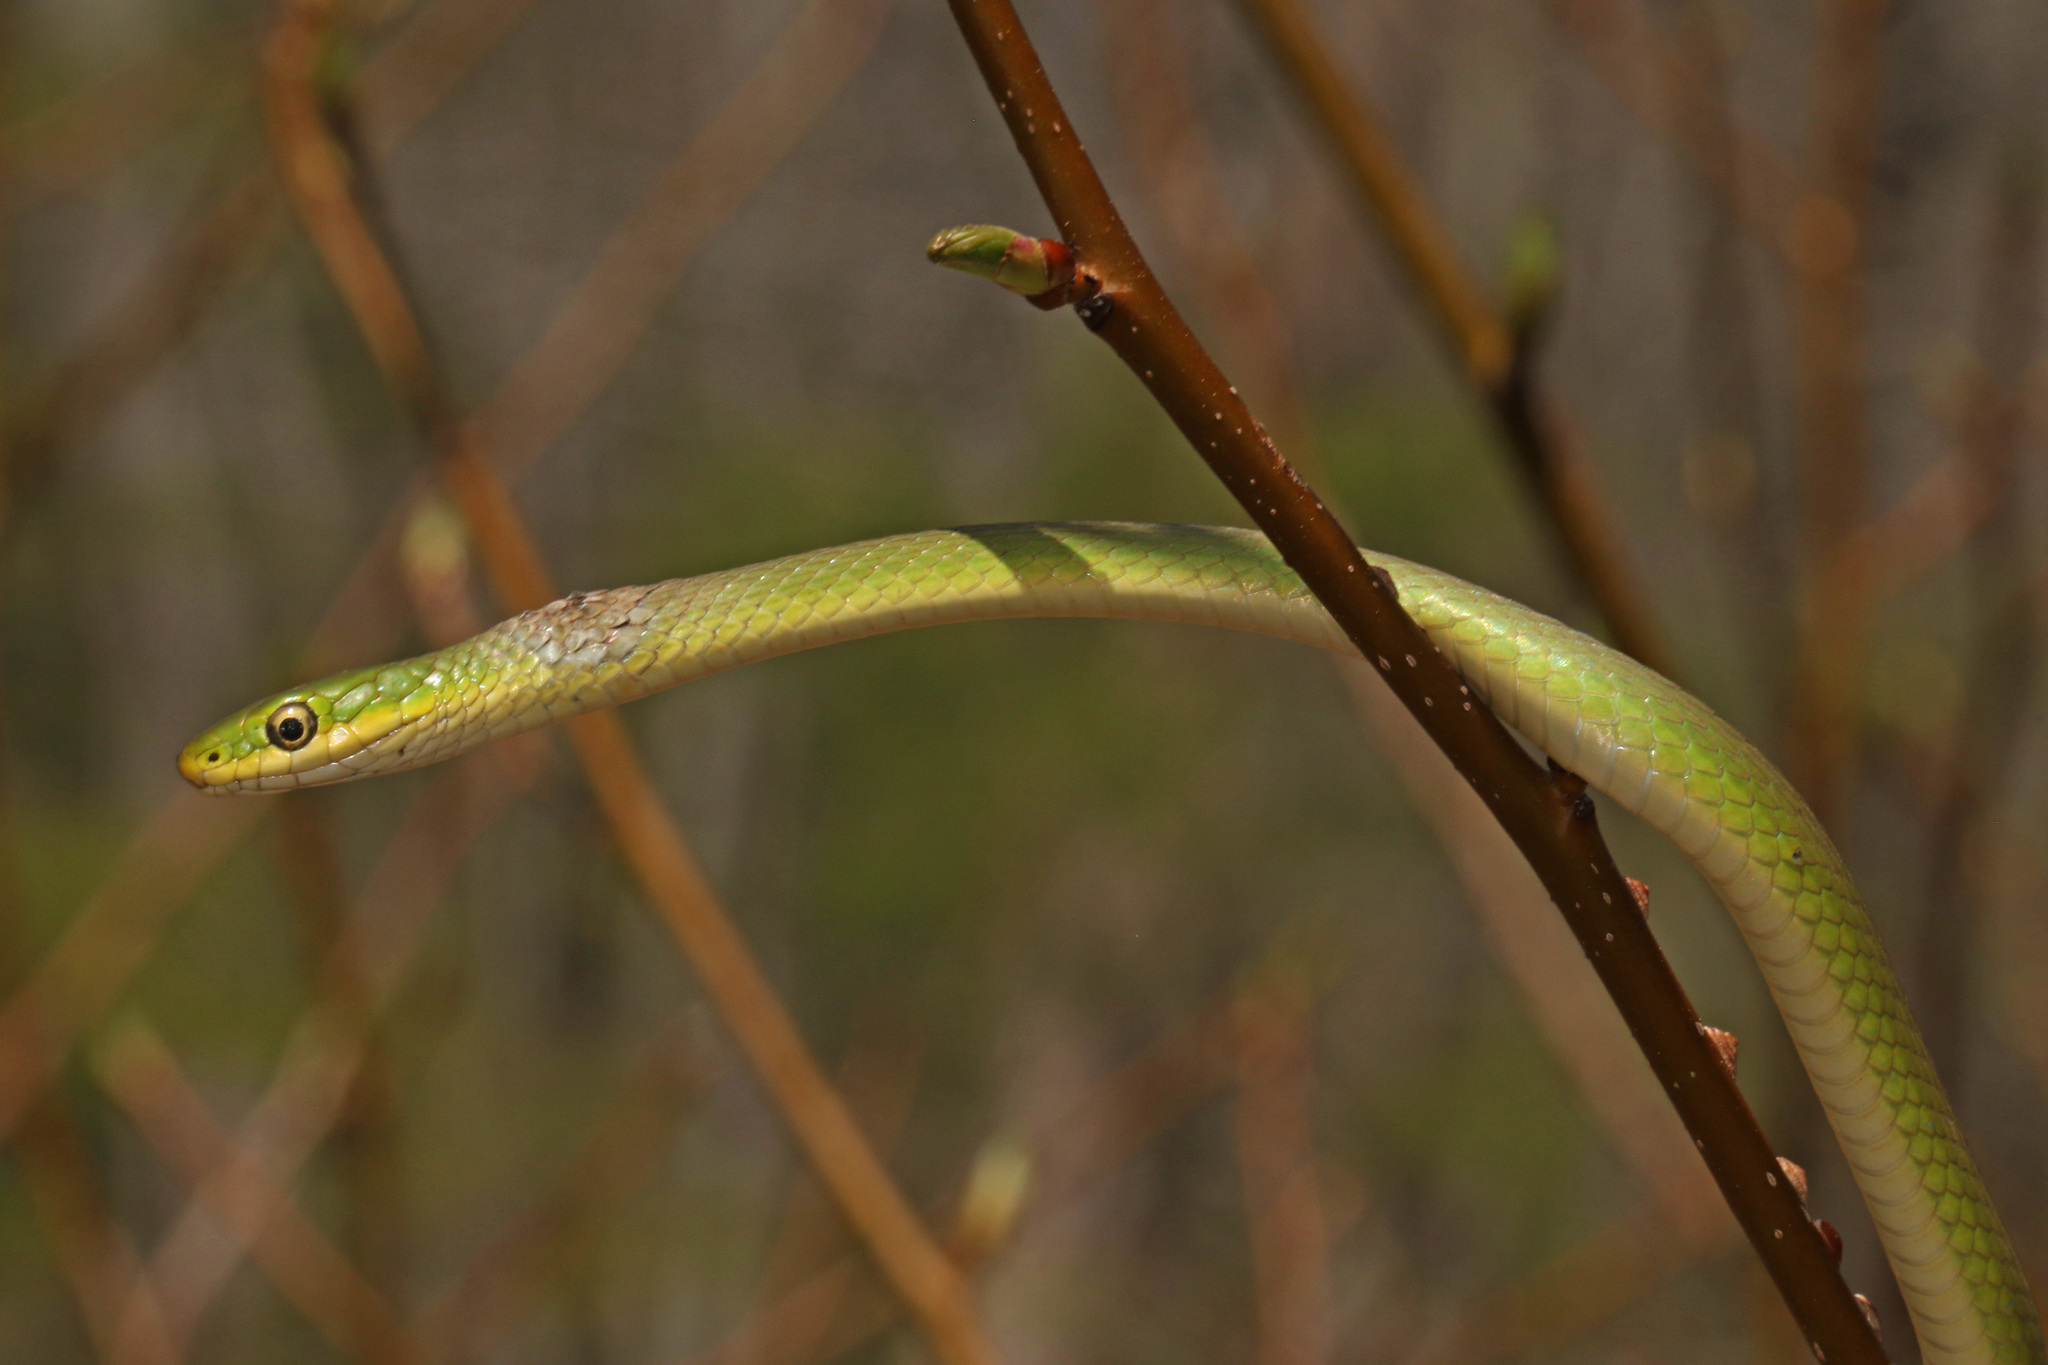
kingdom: Animalia
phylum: Chordata
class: Squamata
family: Colubridae
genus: Opheodrys
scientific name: Opheodrys aestivus
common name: Rough greensnake
